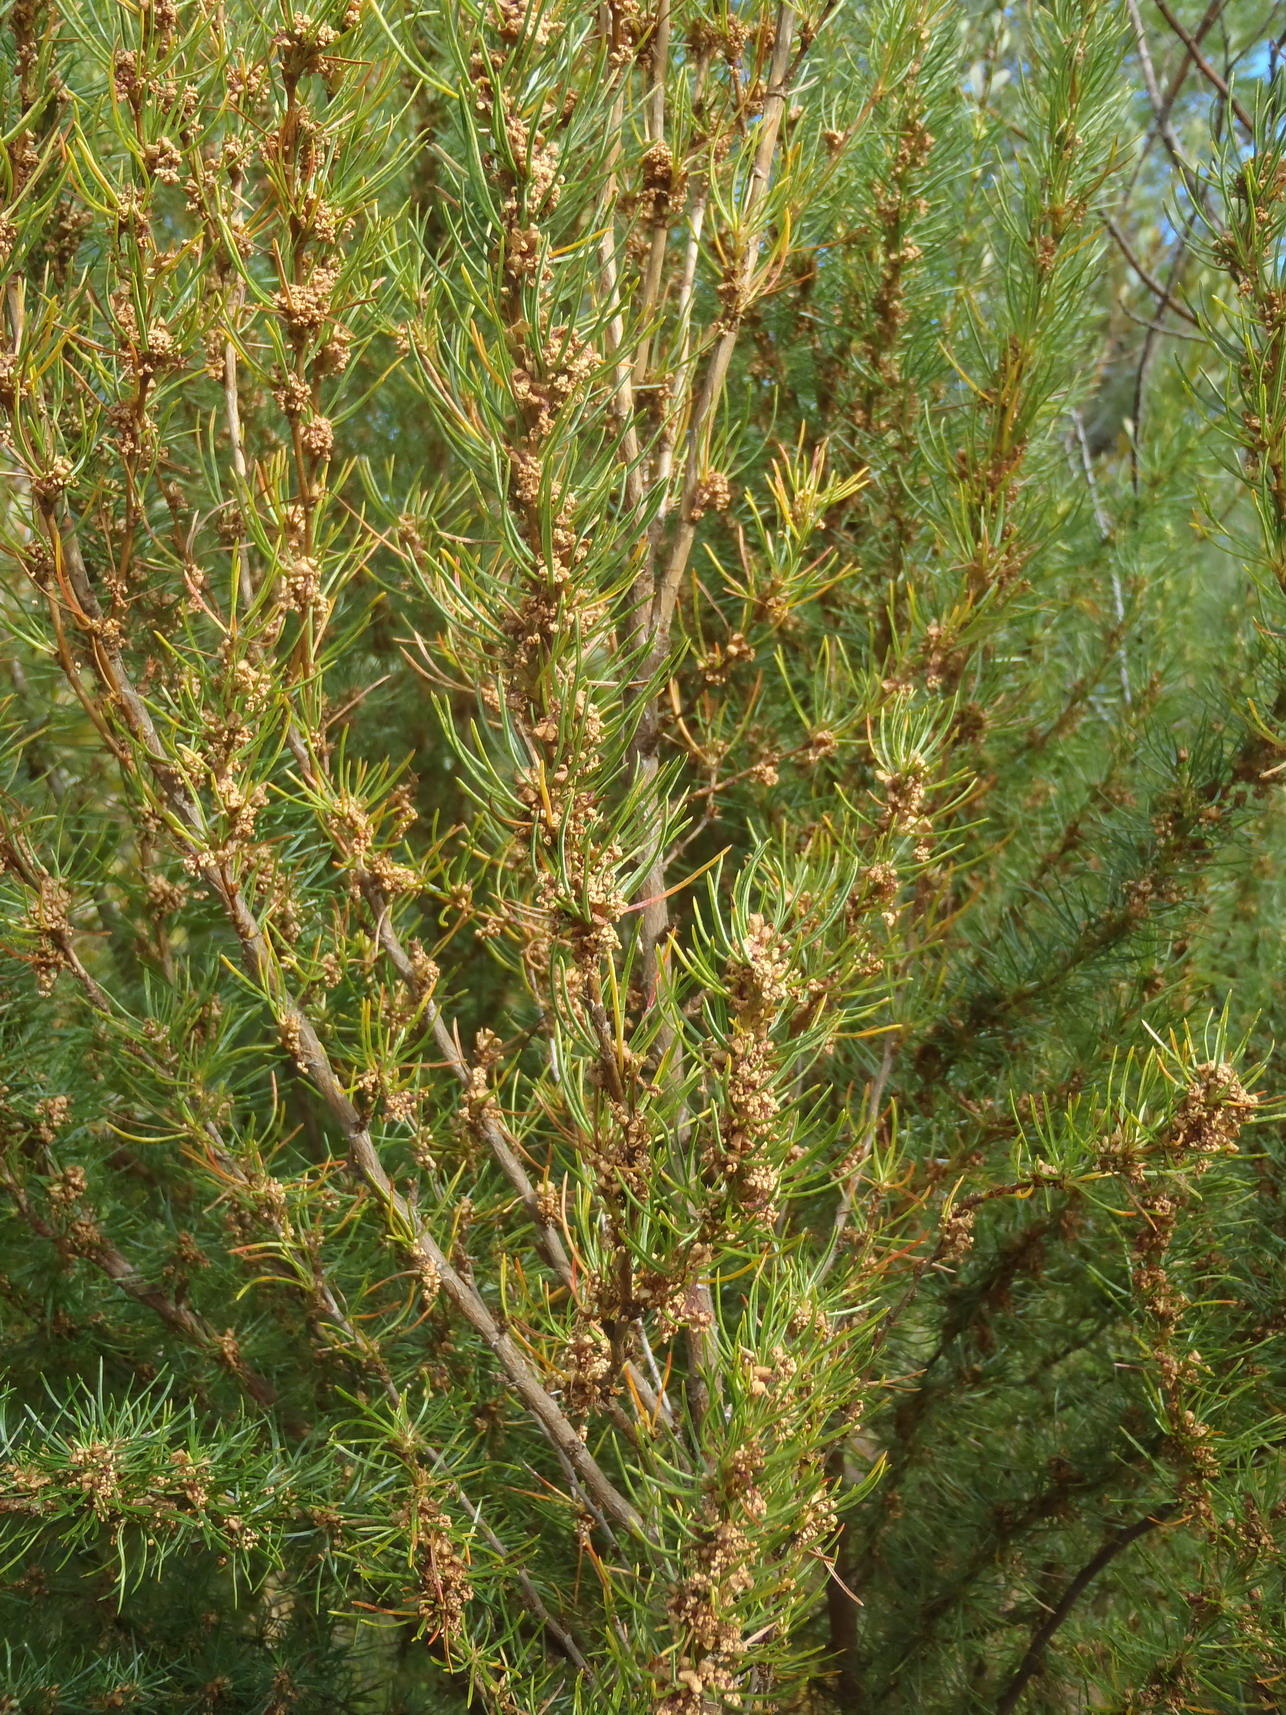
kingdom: Plantae
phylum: Tracheophyta
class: Magnoliopsida
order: Rosales
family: Rosaceae
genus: Cliffortia
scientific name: Cliffortia burchellii
